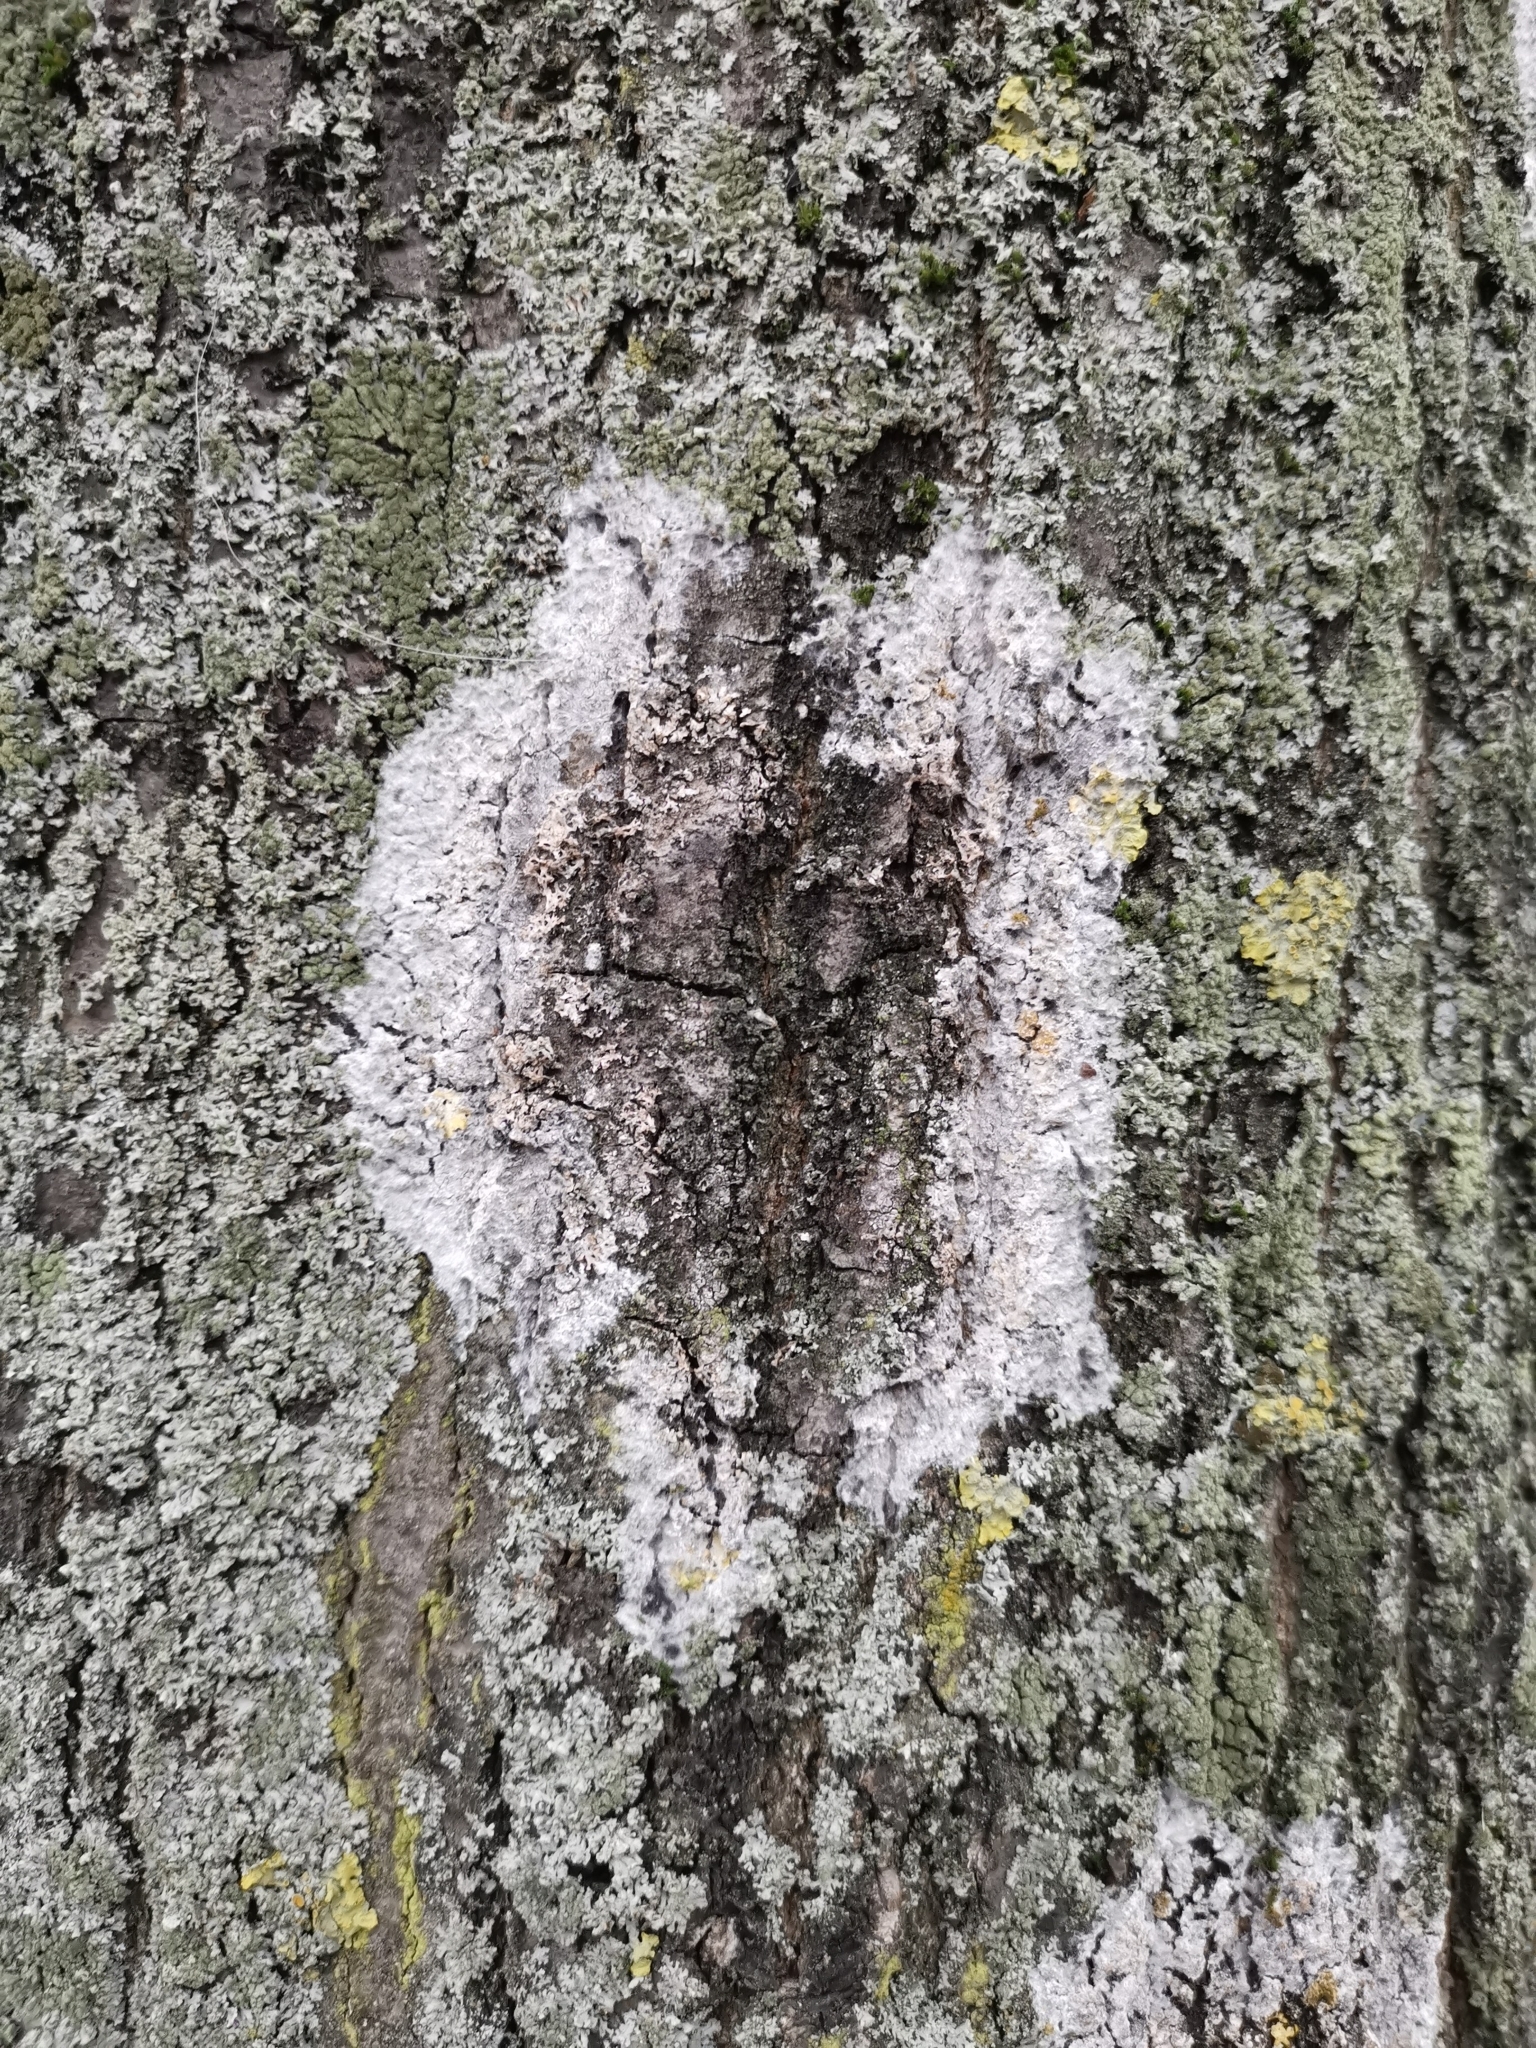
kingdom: Fungi
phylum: Basidiomycota
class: Agaricomycetes
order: Atheliales
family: Atheliaceae
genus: Athelia
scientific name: Athelia arachnoidea
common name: Candelabra duster
